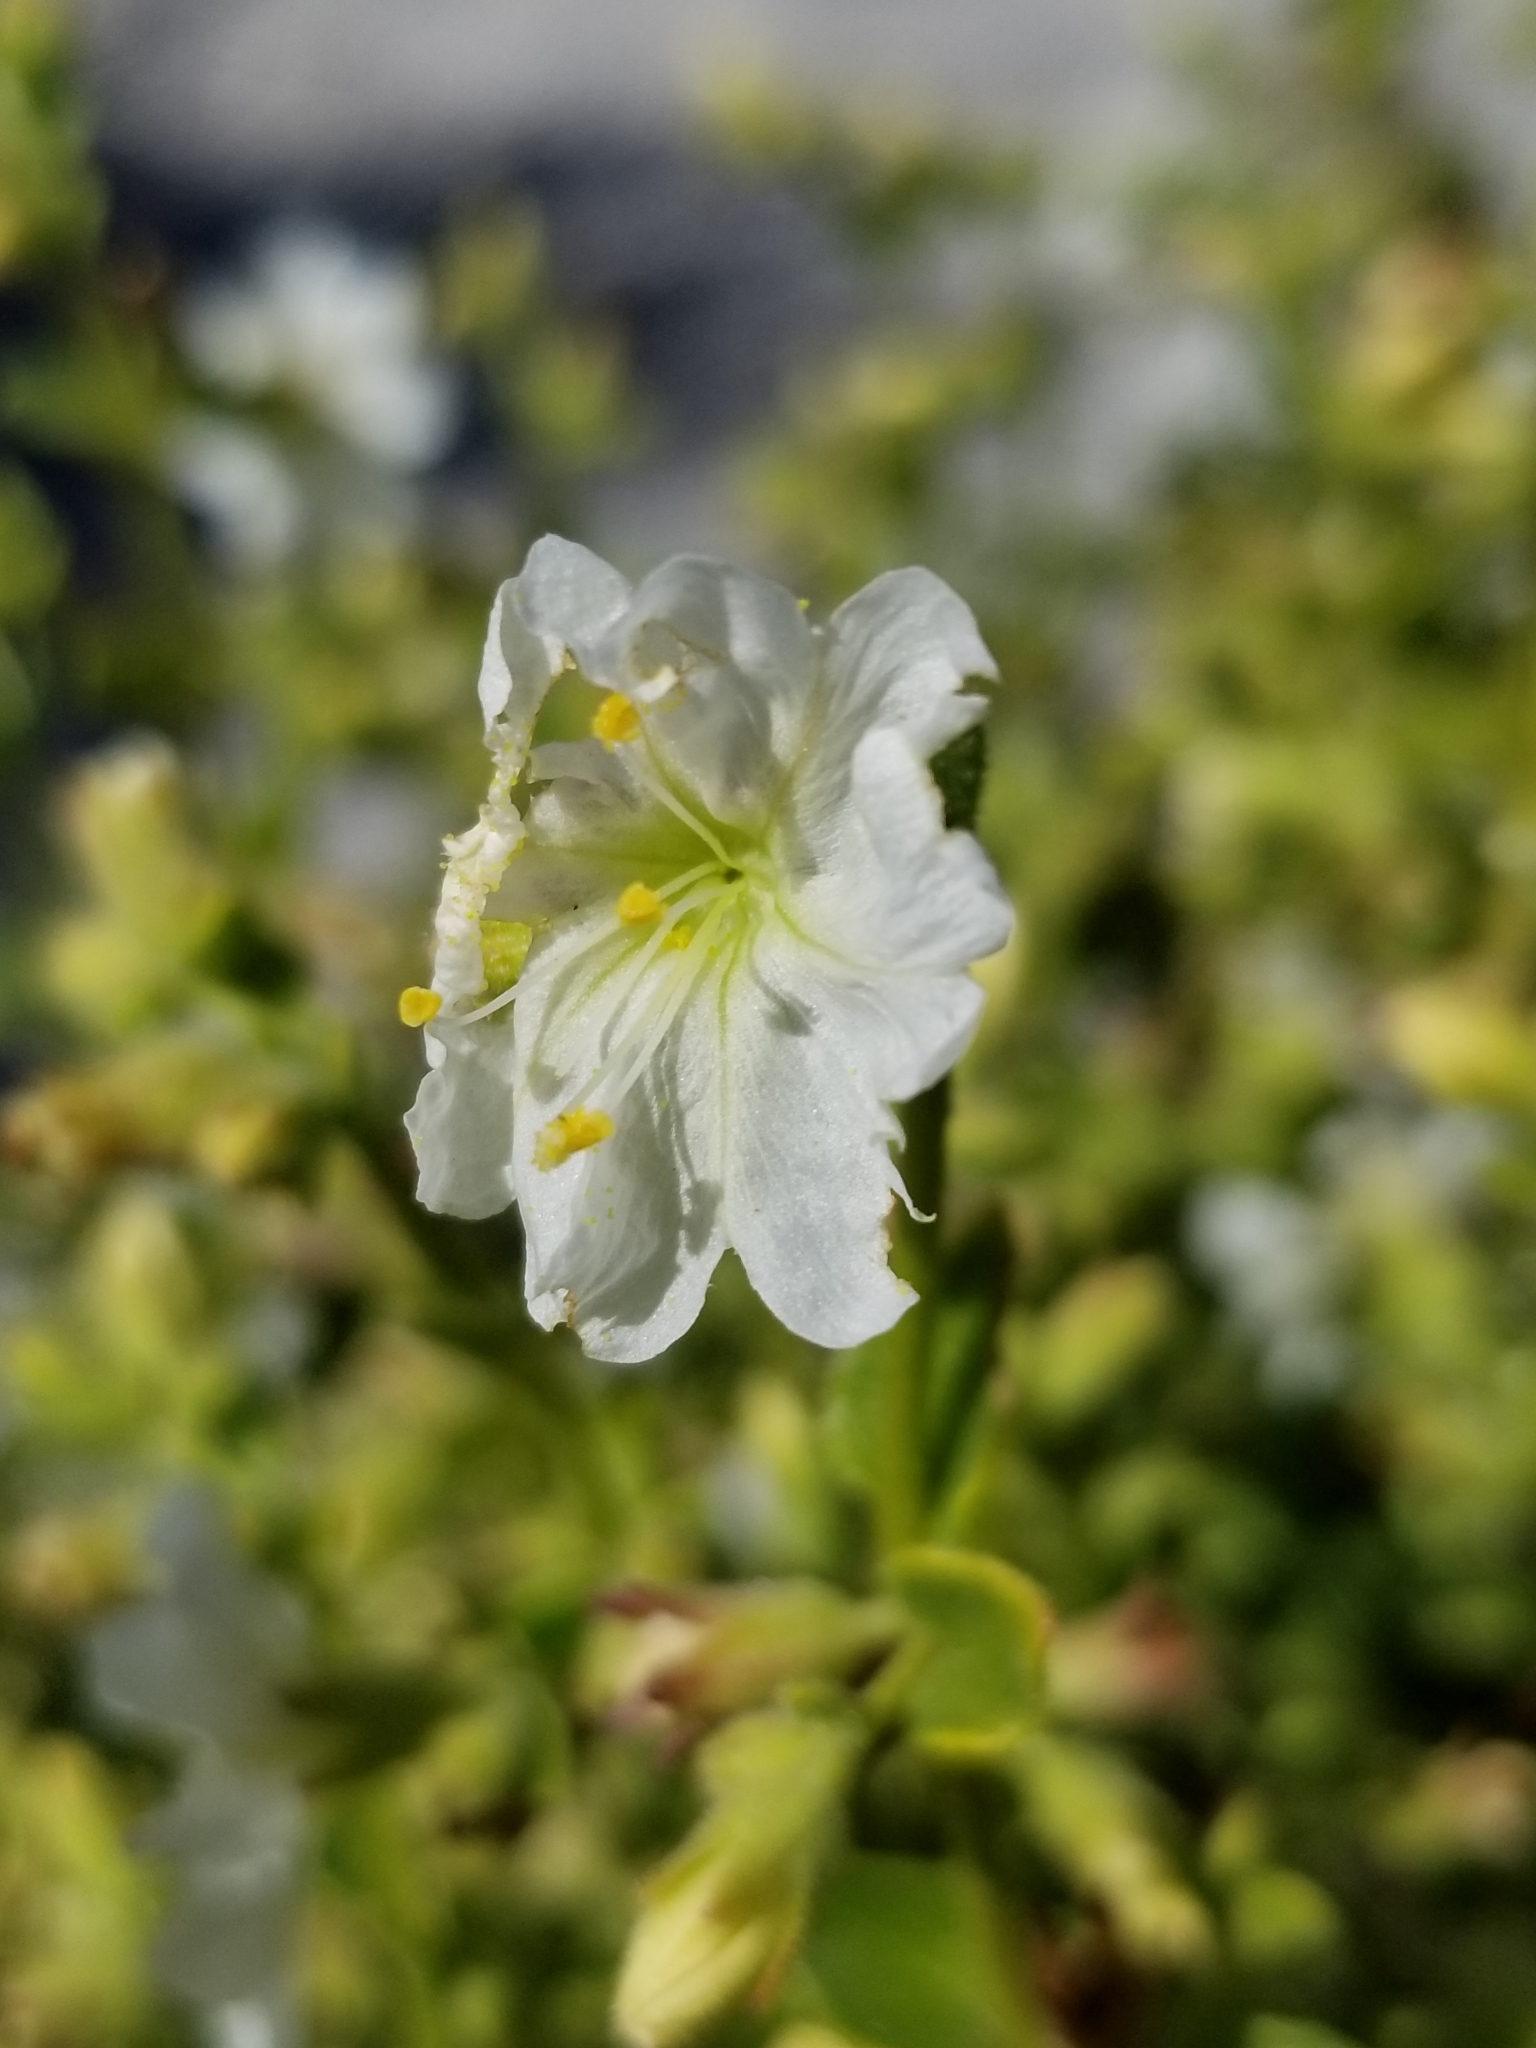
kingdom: Plantae
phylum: Tracheophyta
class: Magnoliopsida
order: Caryophyllales
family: Nyctaginaceae
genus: Mirabilis
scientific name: Mirabilis laevis
